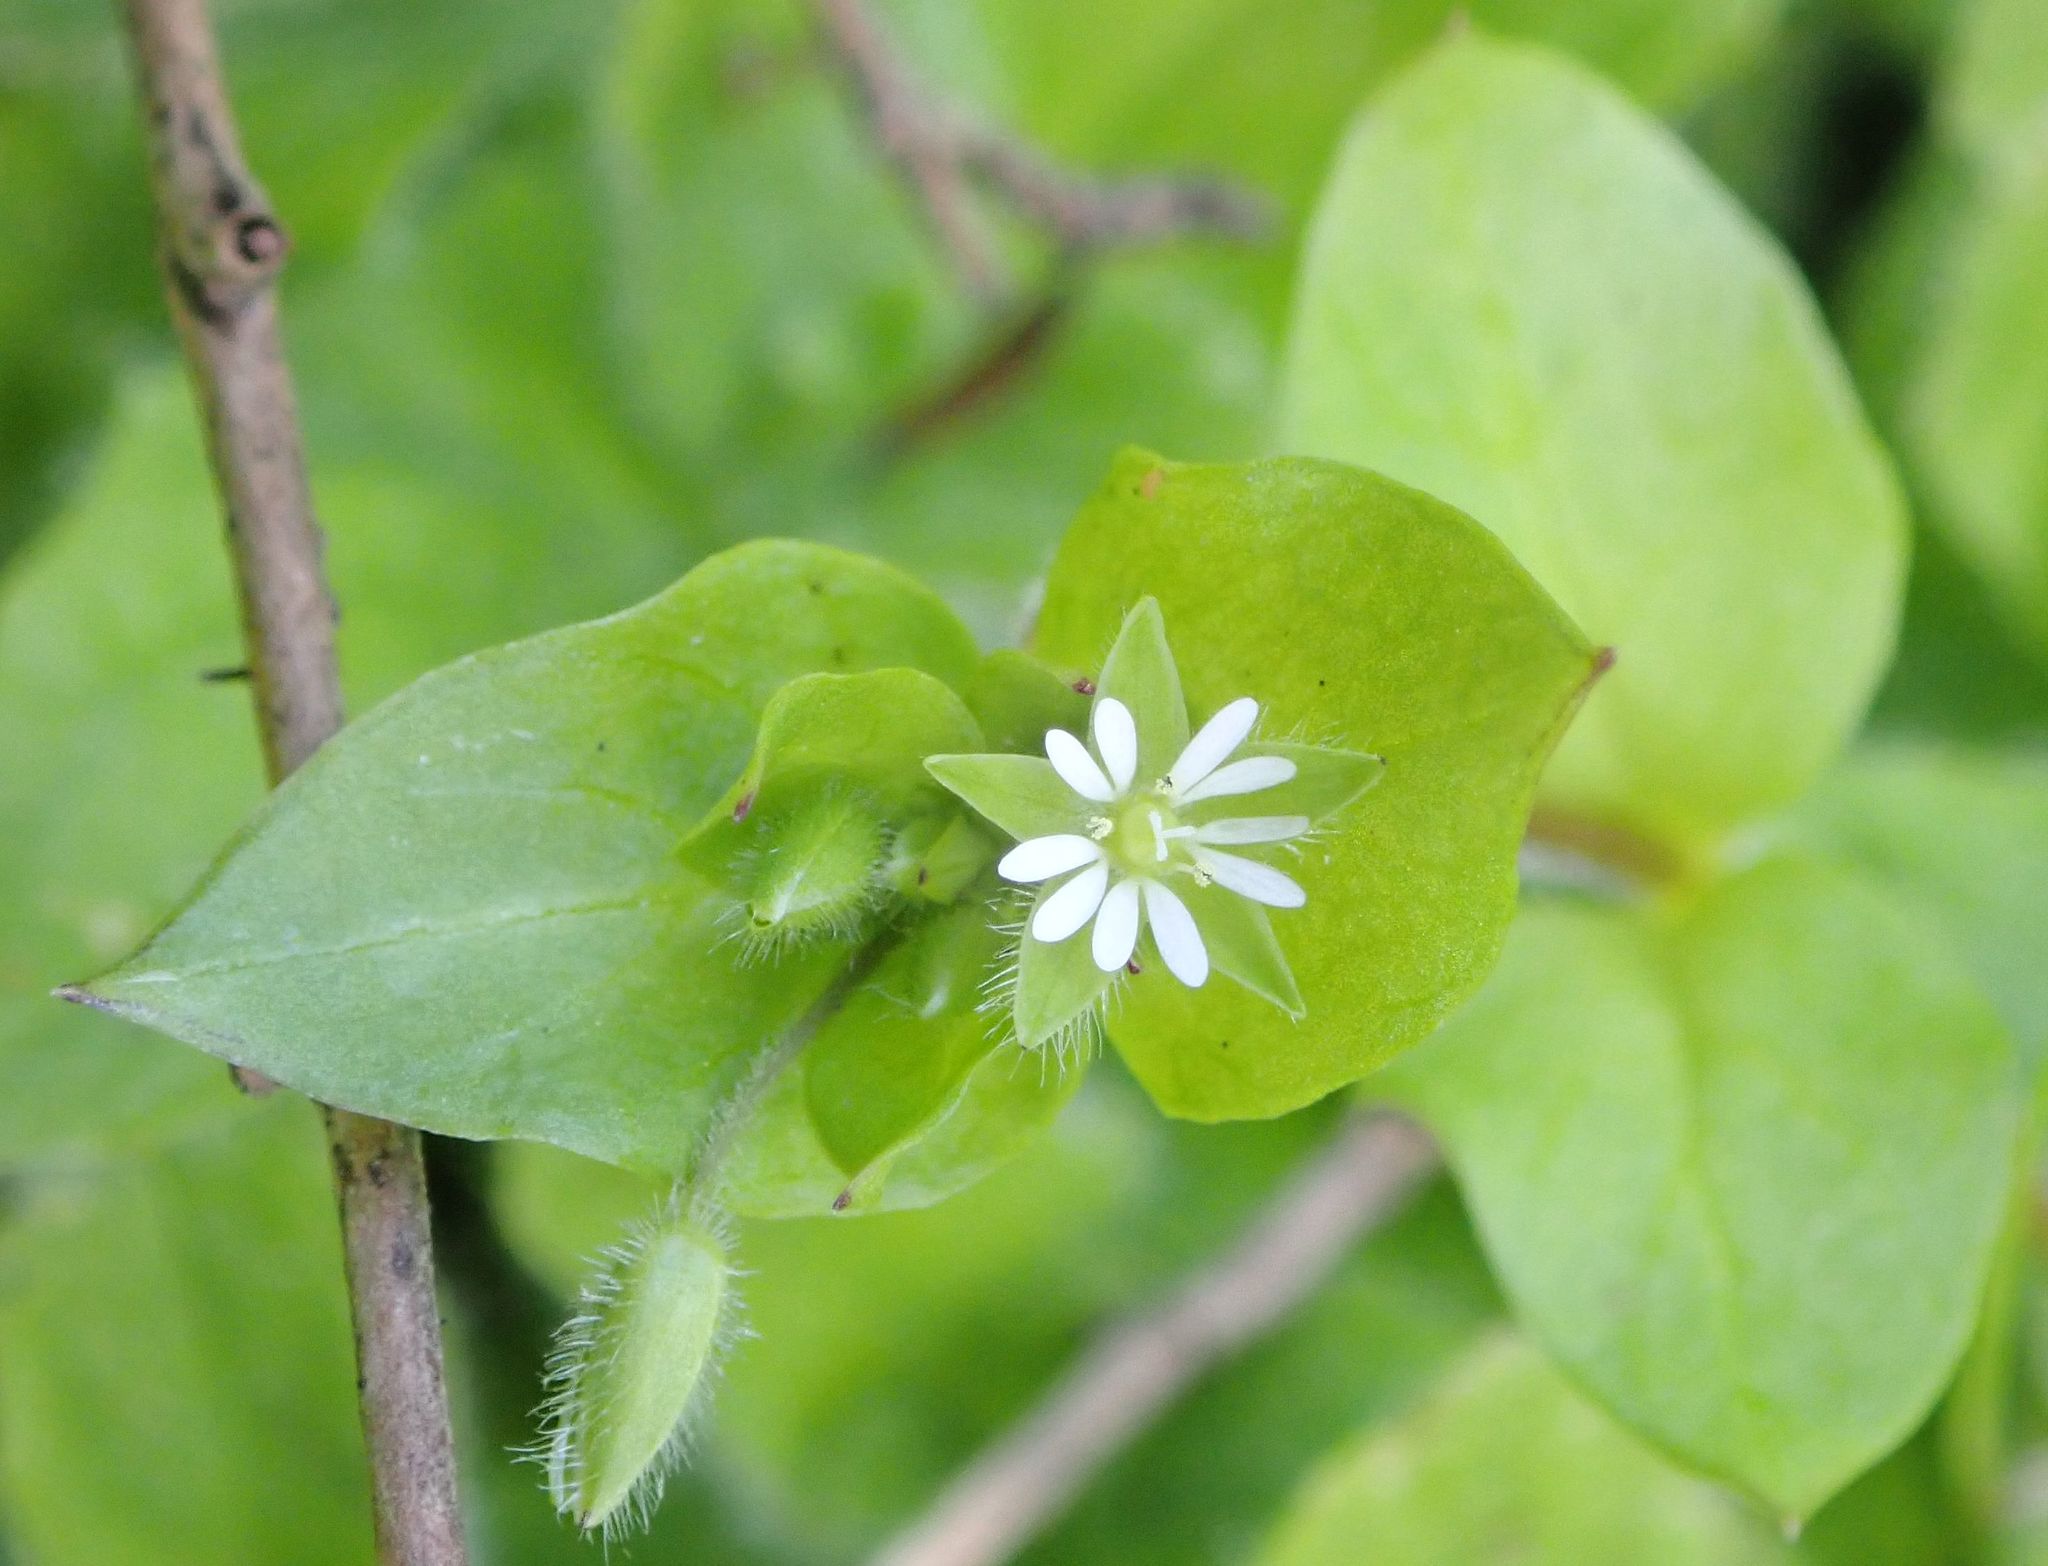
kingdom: Plantae
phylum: Tracheophyta
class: Magnoliopsida
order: Caryophyllales
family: Caryophyllaceae
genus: Stellaria
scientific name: Stellaria media
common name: Common chickweed
